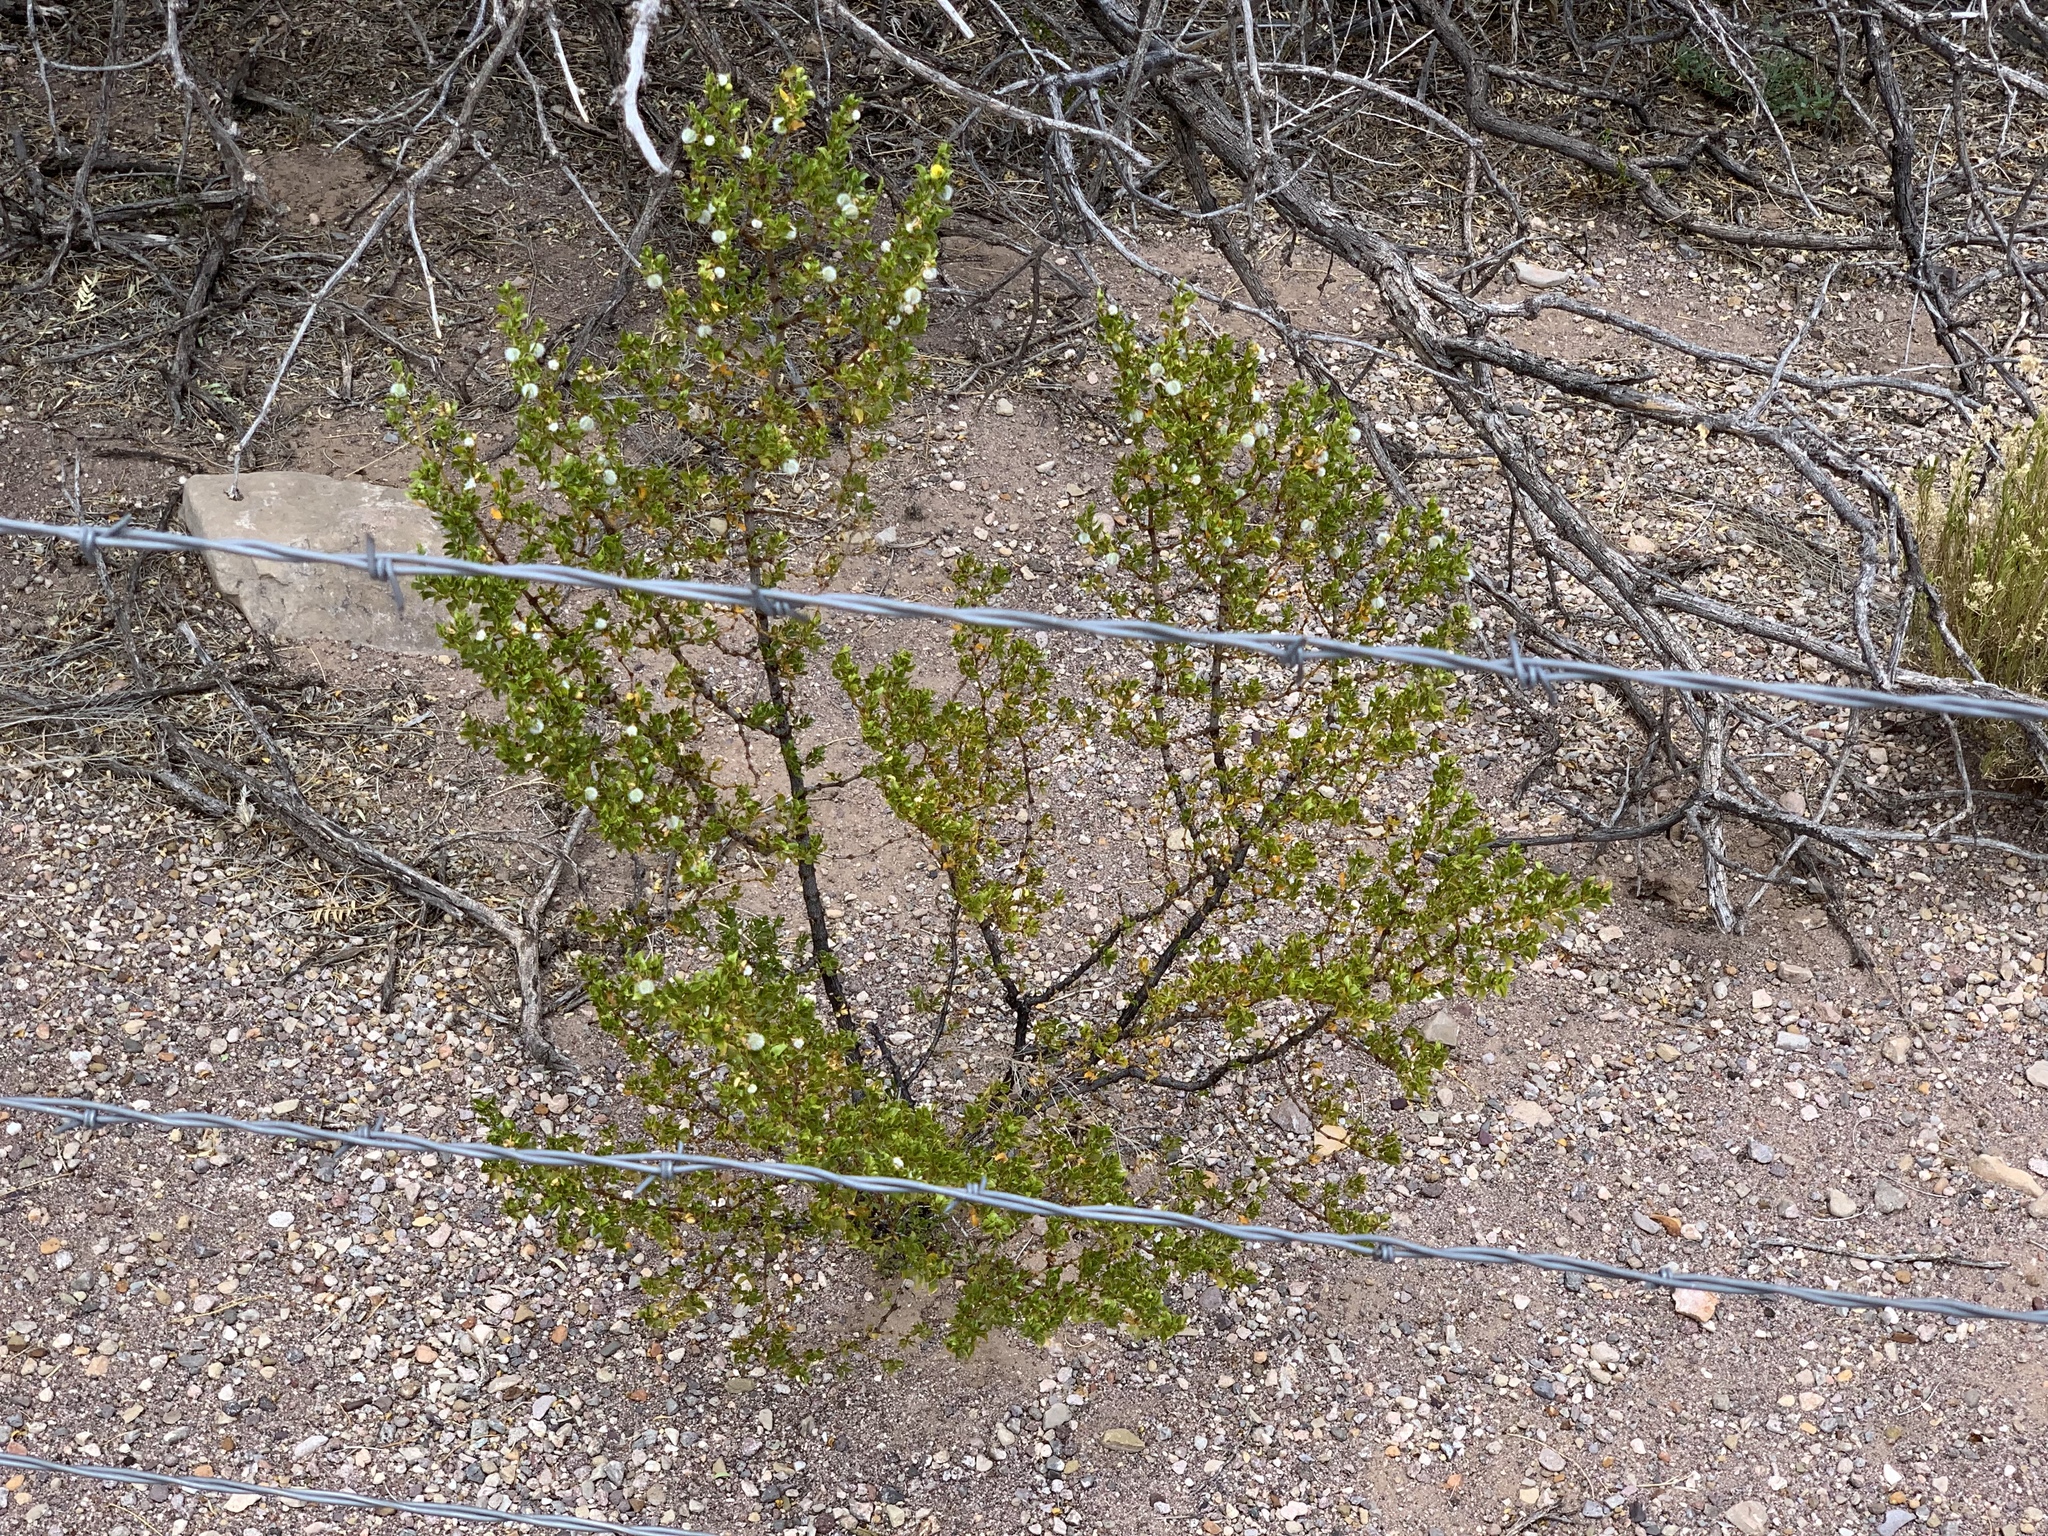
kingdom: Plantae
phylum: Tracheophyta
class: Magnoliopsida
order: Zygophyllales
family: Zygophyllaceae
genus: Larrea
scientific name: Larrea tridentata
